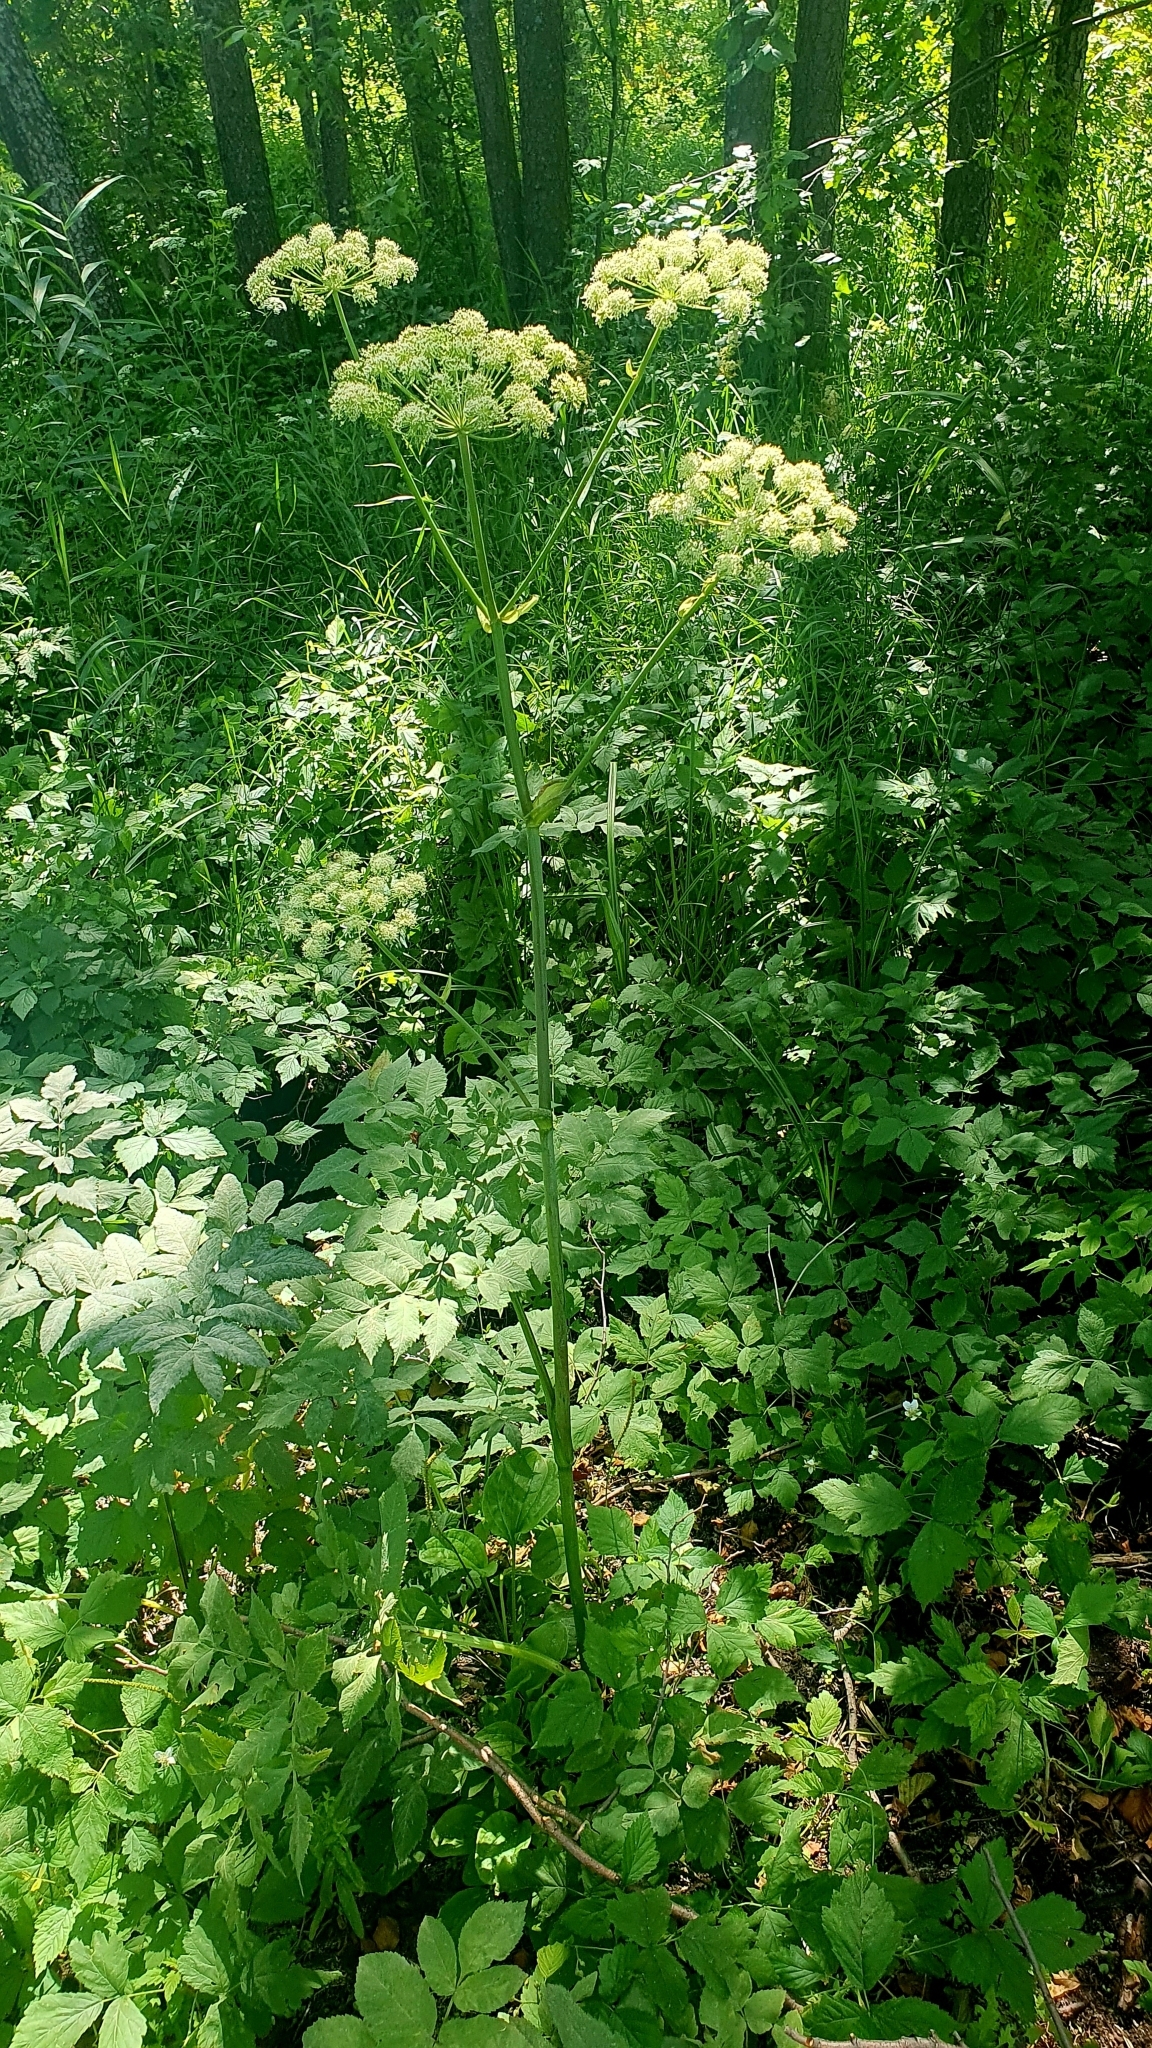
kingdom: Plantae
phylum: Tracheophyta
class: Magnoliopsida
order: Apiales
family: Apiaceae
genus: Angelica
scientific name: Angelica sylvestris
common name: Wild angelica
